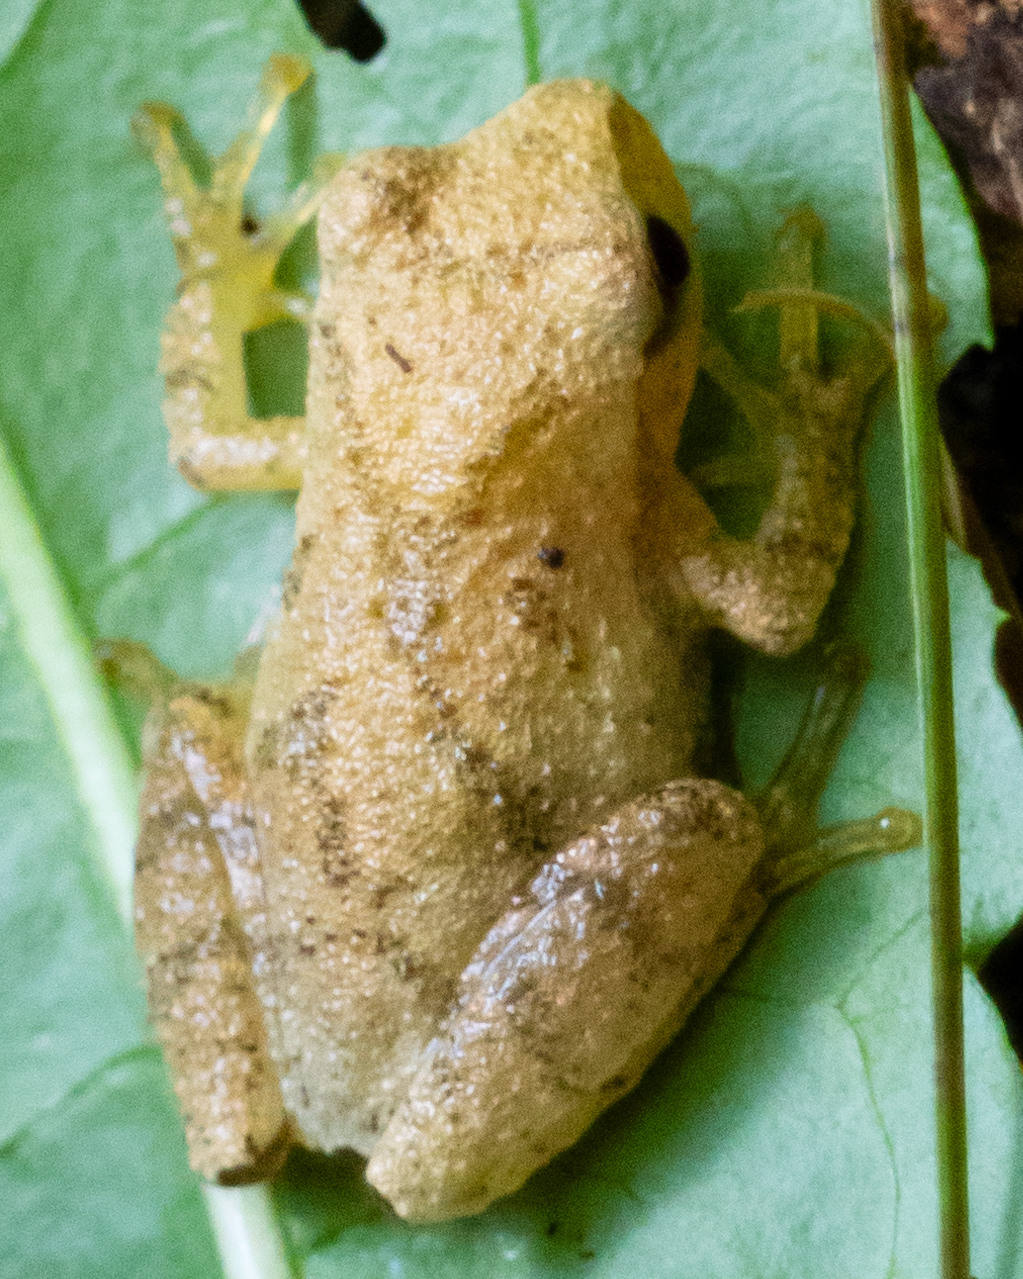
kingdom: Animalia
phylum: Chordata
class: Amphibia
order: Anura
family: Hylidae
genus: Pseudacris
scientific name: Pseudacris crucifer
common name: Spring peeper
